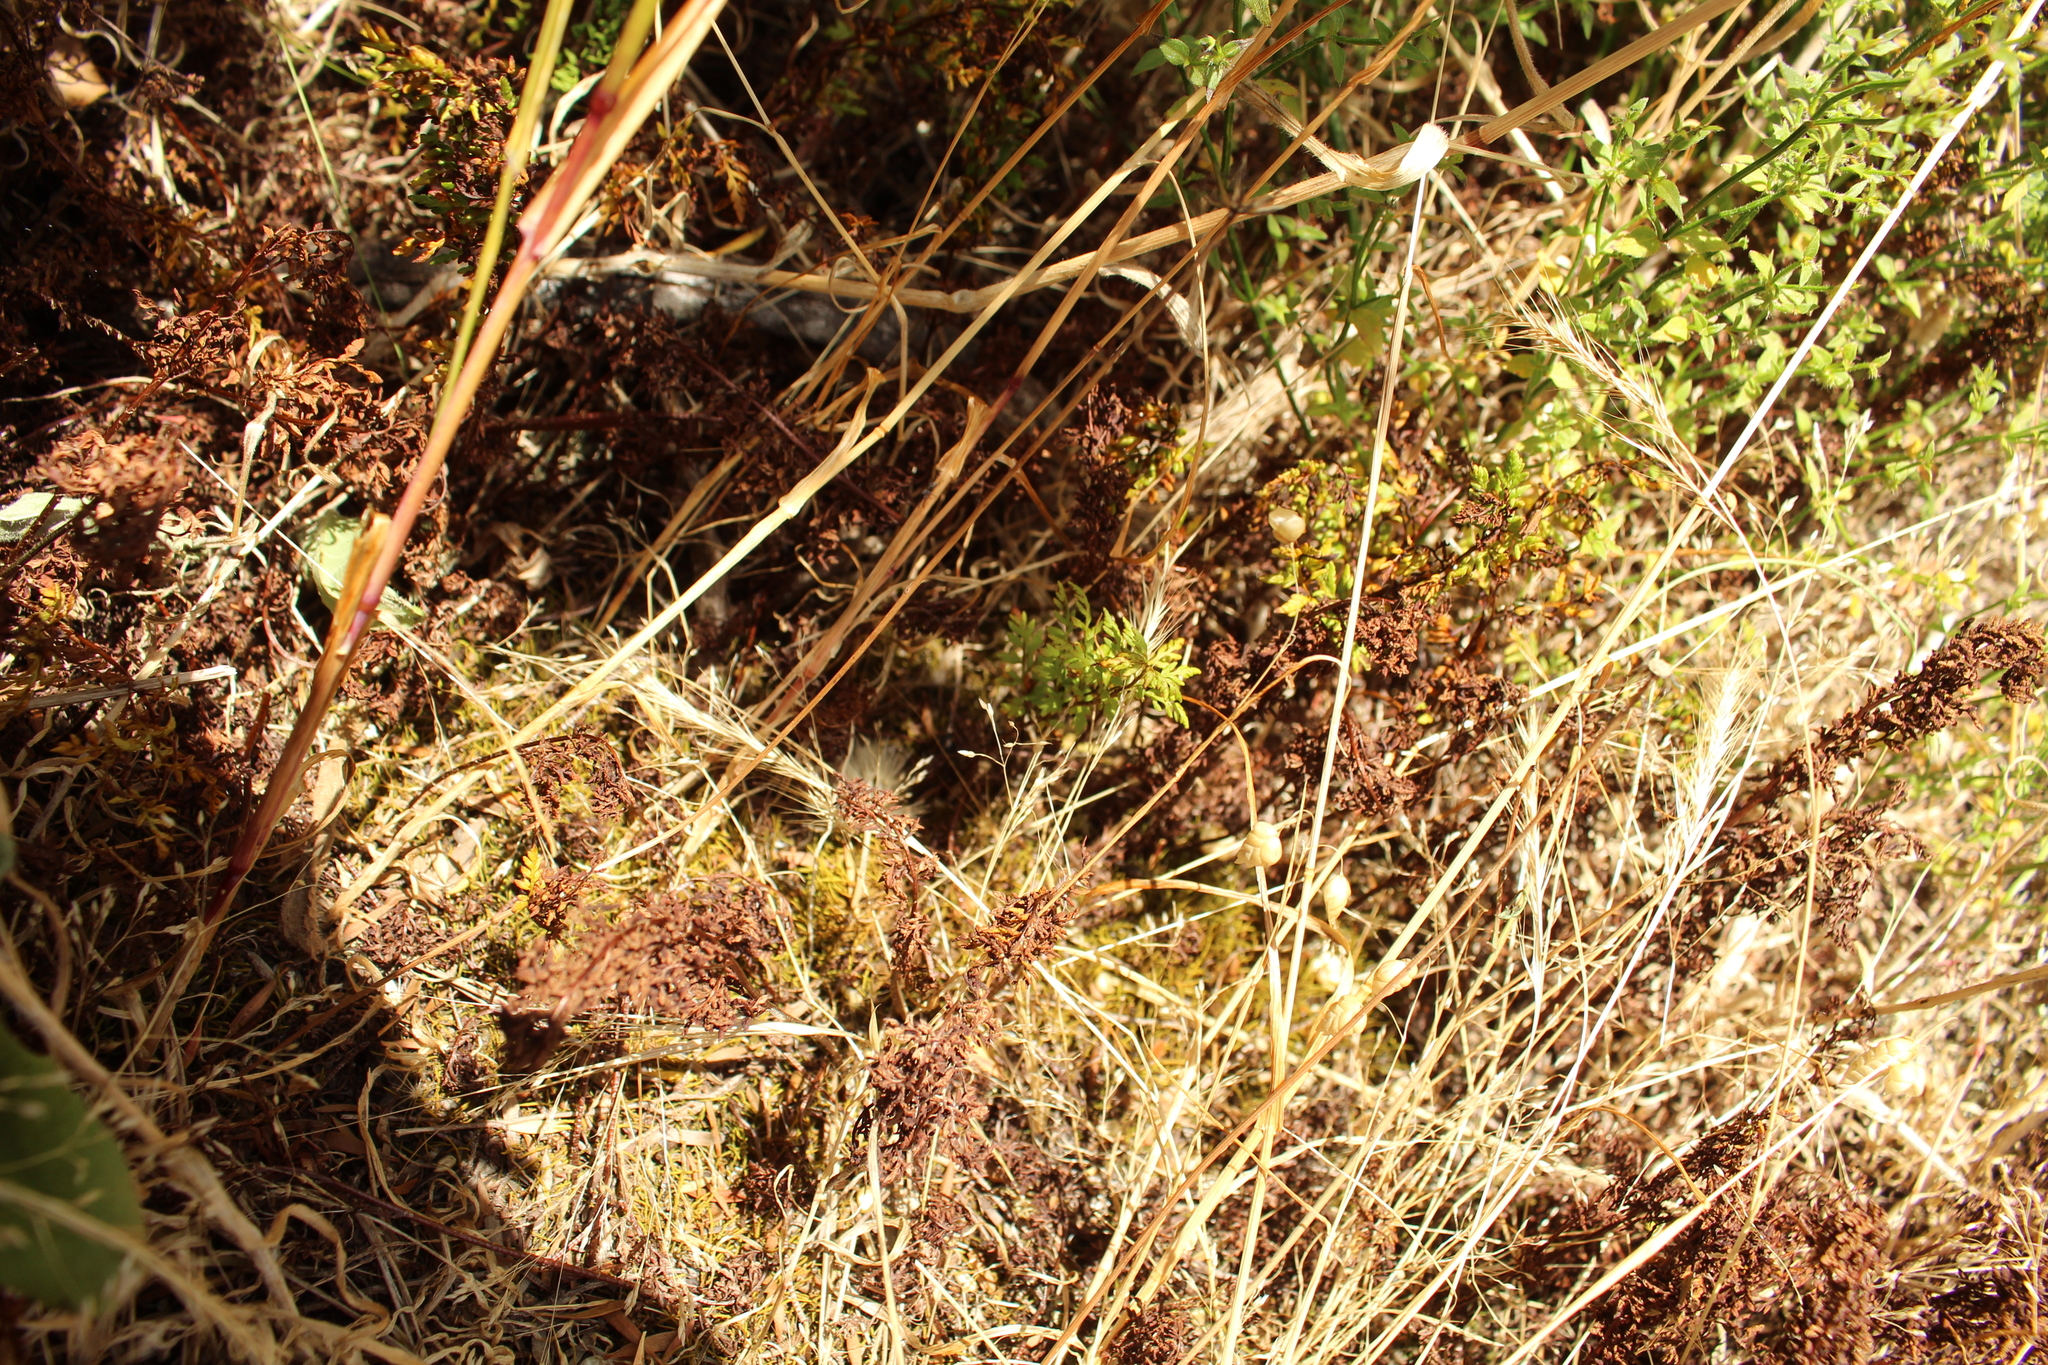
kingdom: Plantae
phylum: Tracheophyta
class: Polypodiopsida
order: Polypodiales
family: Pteridaceae
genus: Cheilanthes
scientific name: Cheilanthes austrotenuifolia
